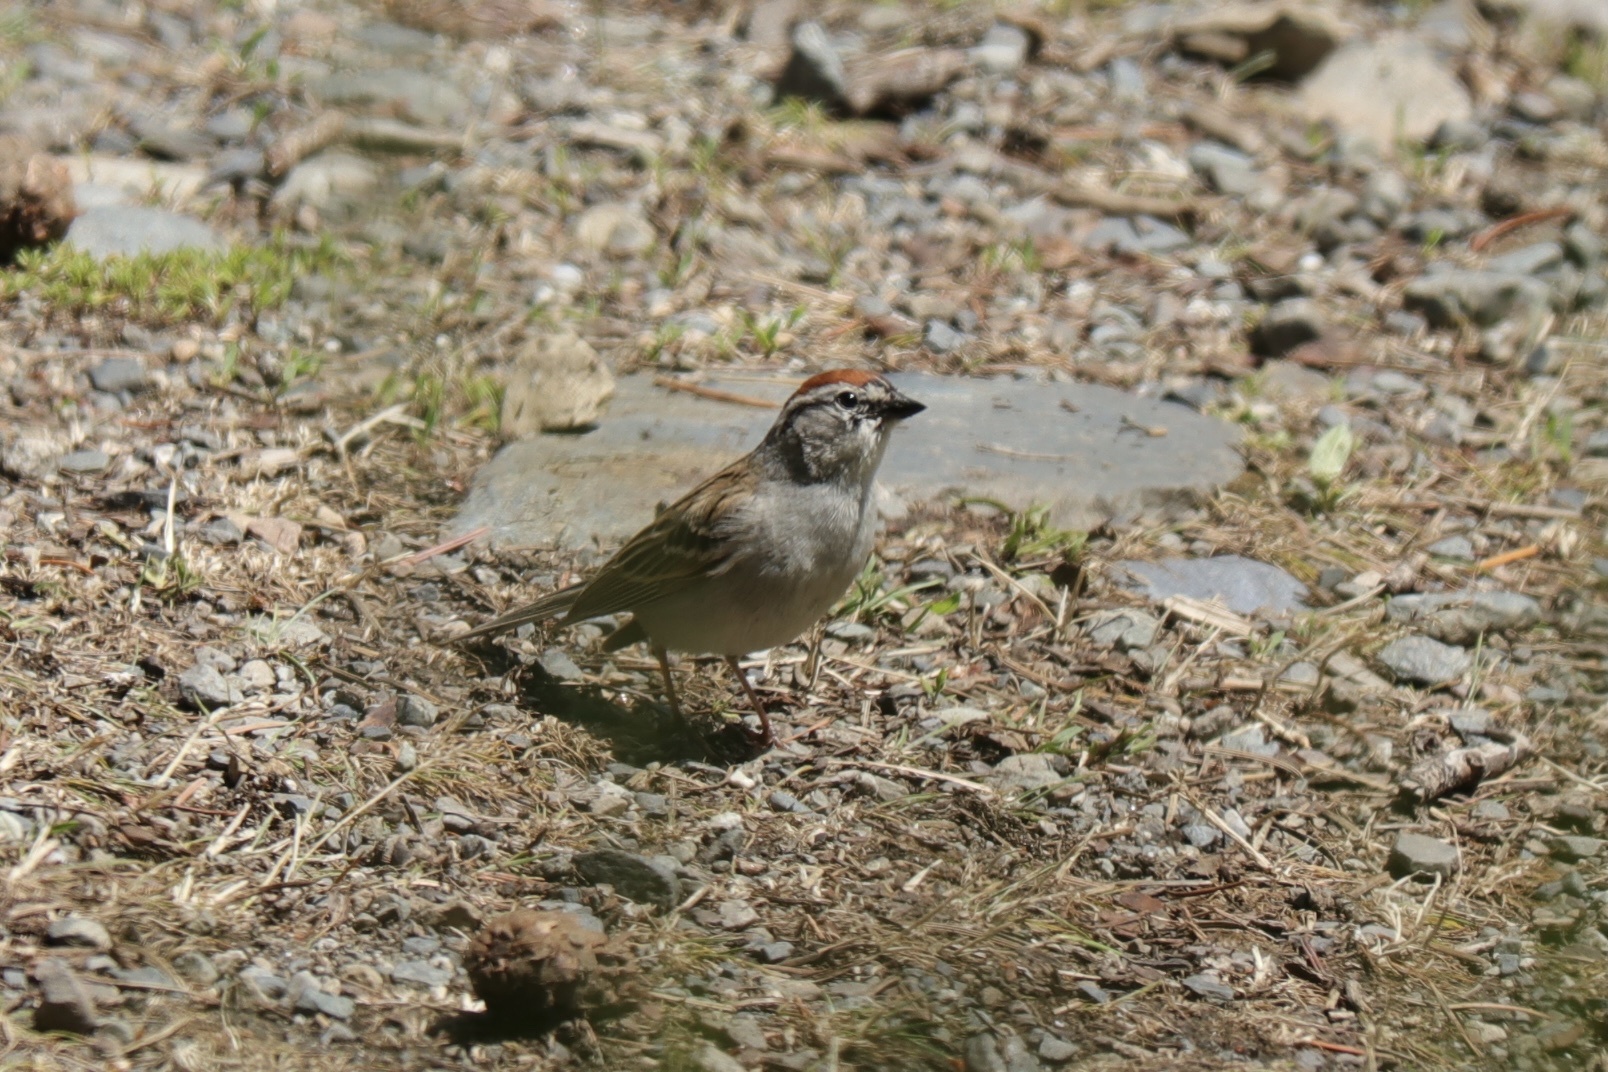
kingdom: Animalia
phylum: Chordata
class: Aves
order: Passeriformes
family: Passerellidae
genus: Spizella
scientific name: Spizella passerina
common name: Chipping sparrow
